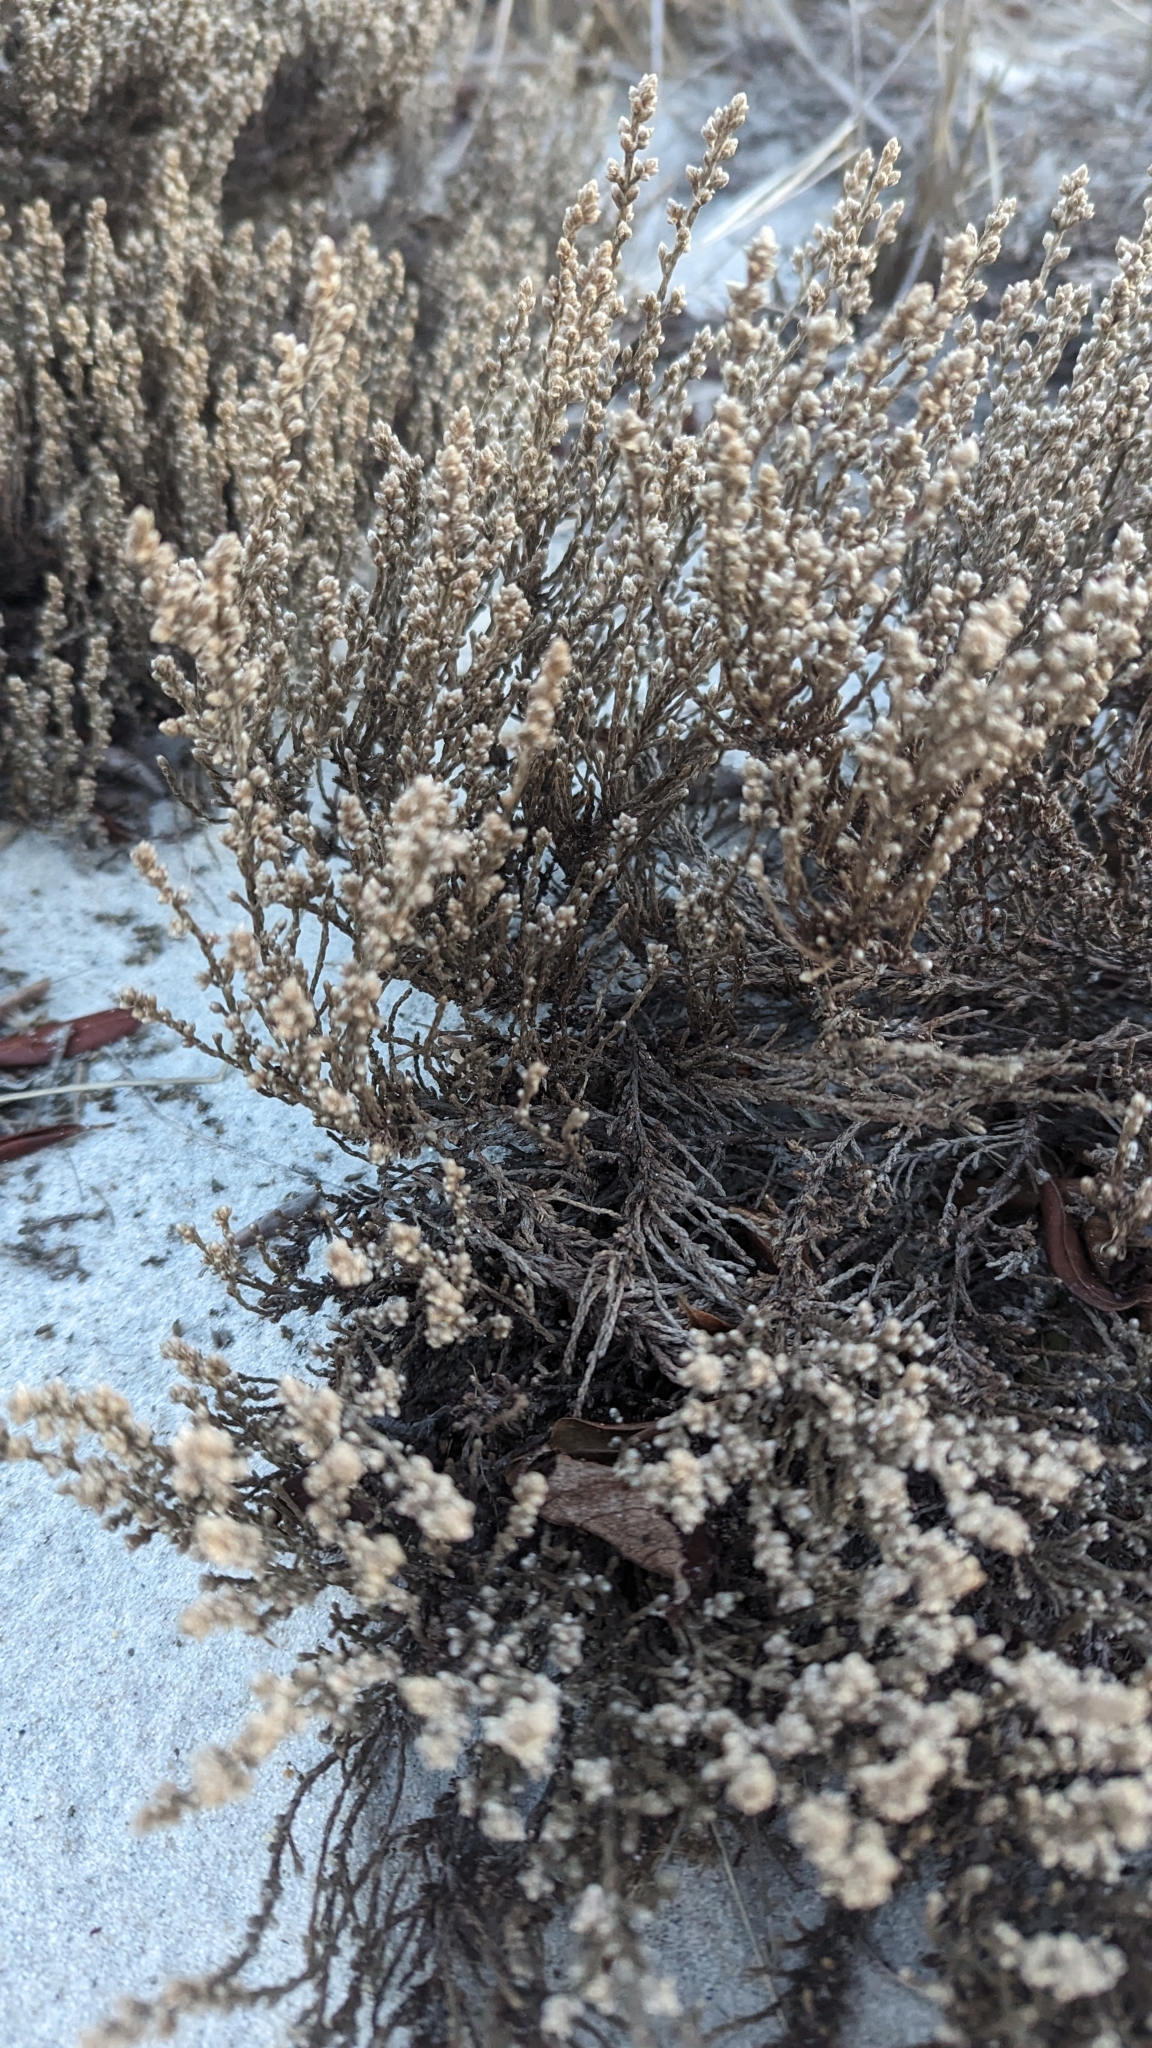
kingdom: Plantae
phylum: Tracheophyta
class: Magnoliopsida
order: Malvales
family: Cistaceae
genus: Hudsonia
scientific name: Hudsonia tomentosa
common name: Beach-heath
